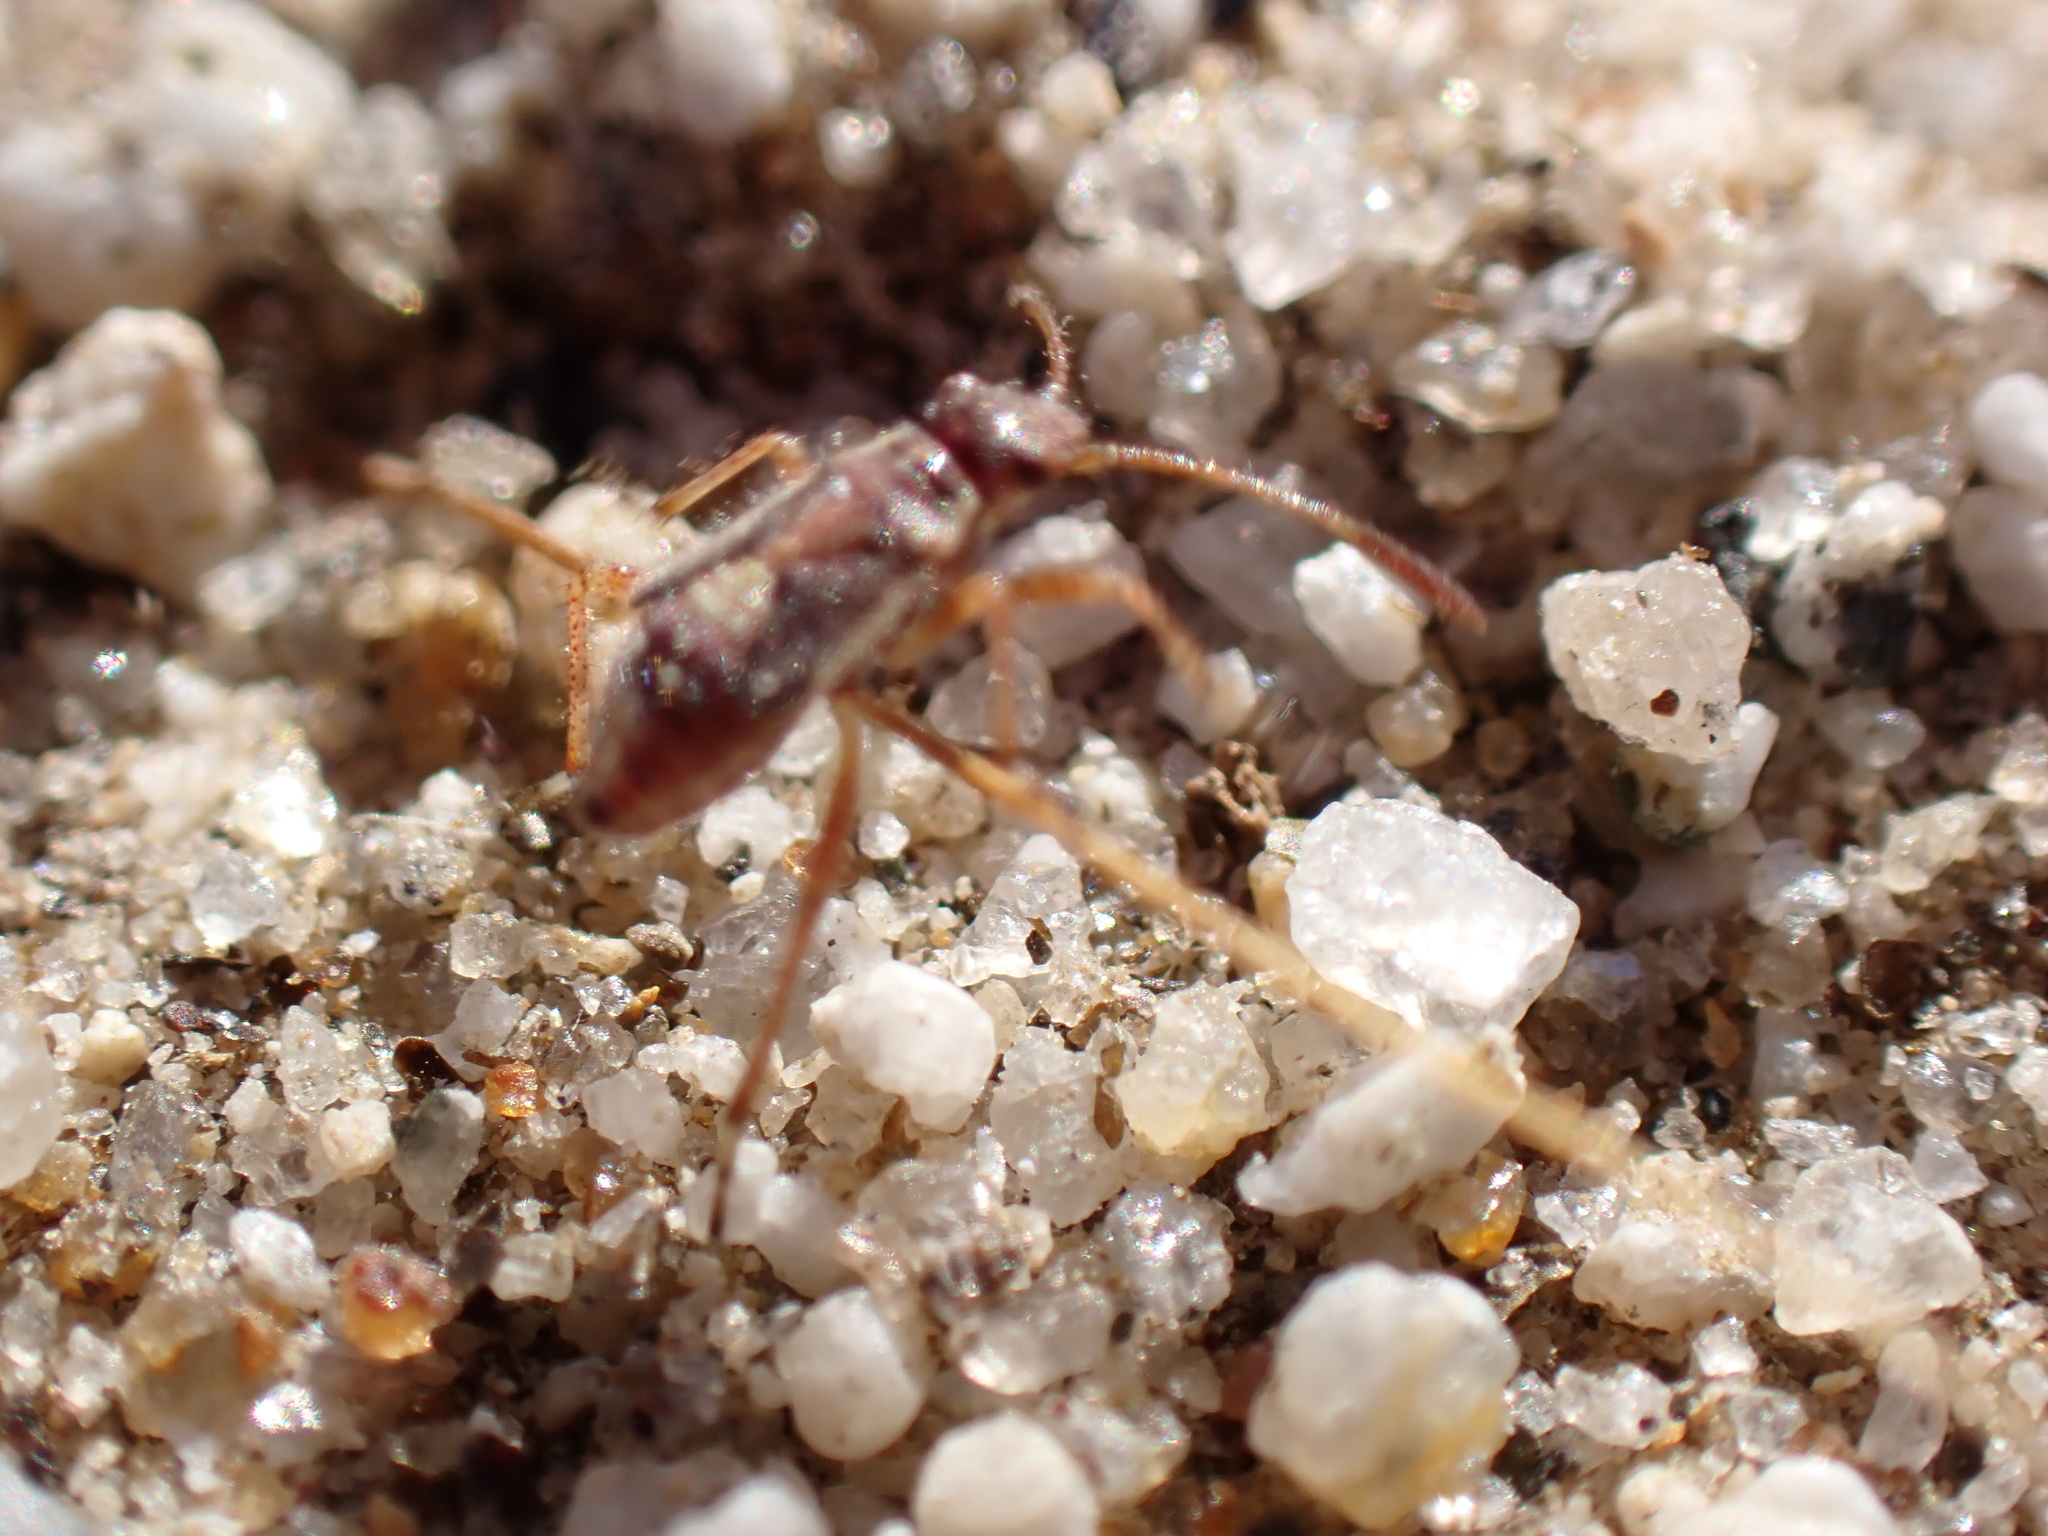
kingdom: Animalia
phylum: Arthropoda
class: Insecta
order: Hemiptera
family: Rhopalidae
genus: Liorhyssus
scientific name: Liorhyssus hyalinus
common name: Scentless plant bug
